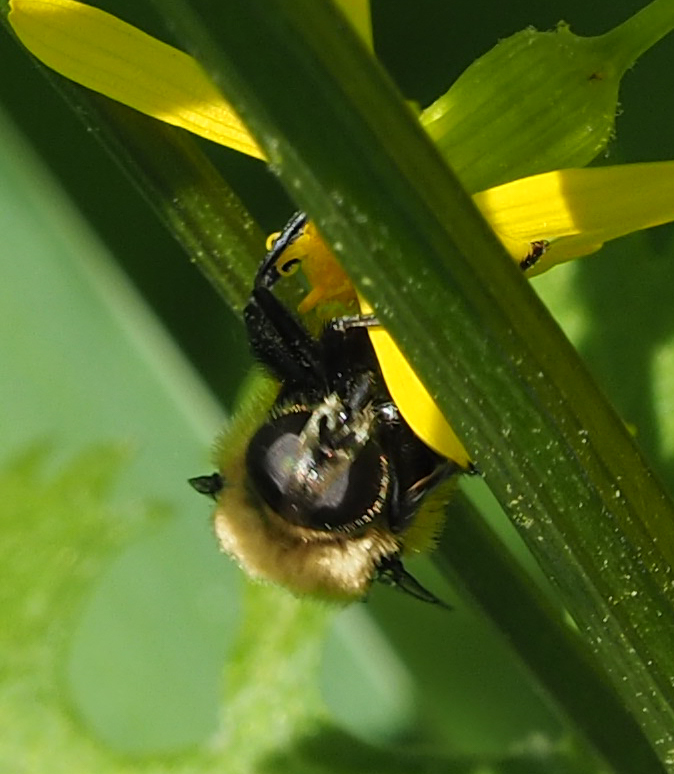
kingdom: Animalia
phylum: Arthropoda
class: Insecta
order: Diptera
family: Syrphidae
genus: Merodon
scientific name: Merodon equestris
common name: Greater bulb-fly
